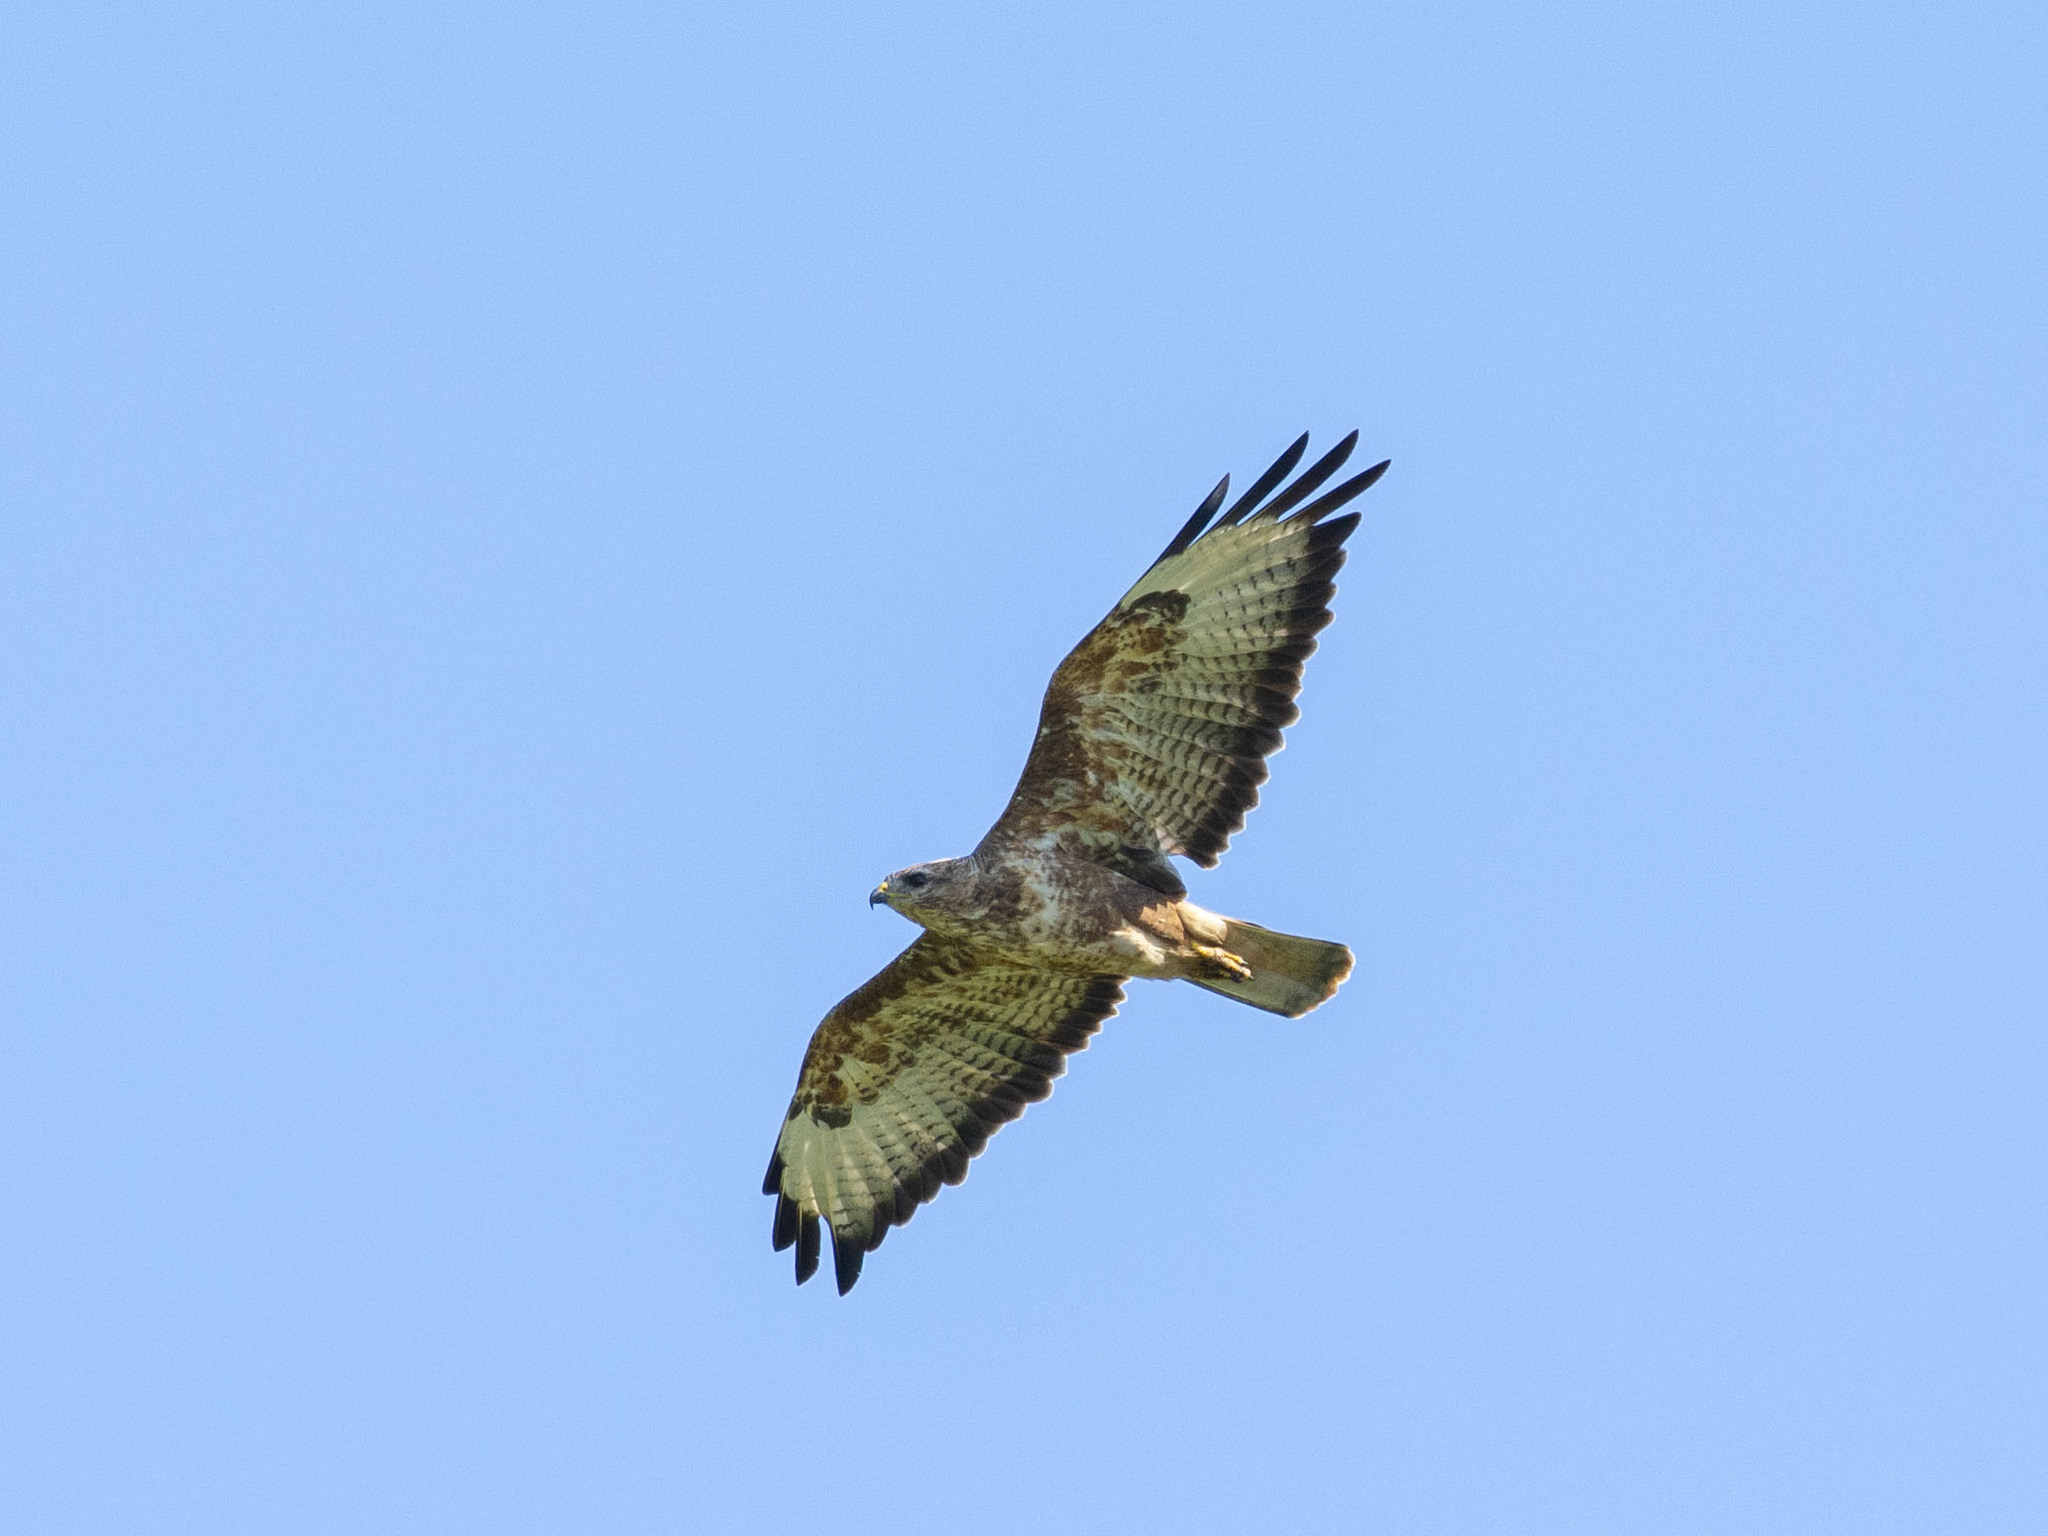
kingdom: Animalia
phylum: Chordata
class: Aves
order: Accipitriformes
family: Accipitridae
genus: Buteo
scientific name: Buteo buteo
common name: Common buzzard
